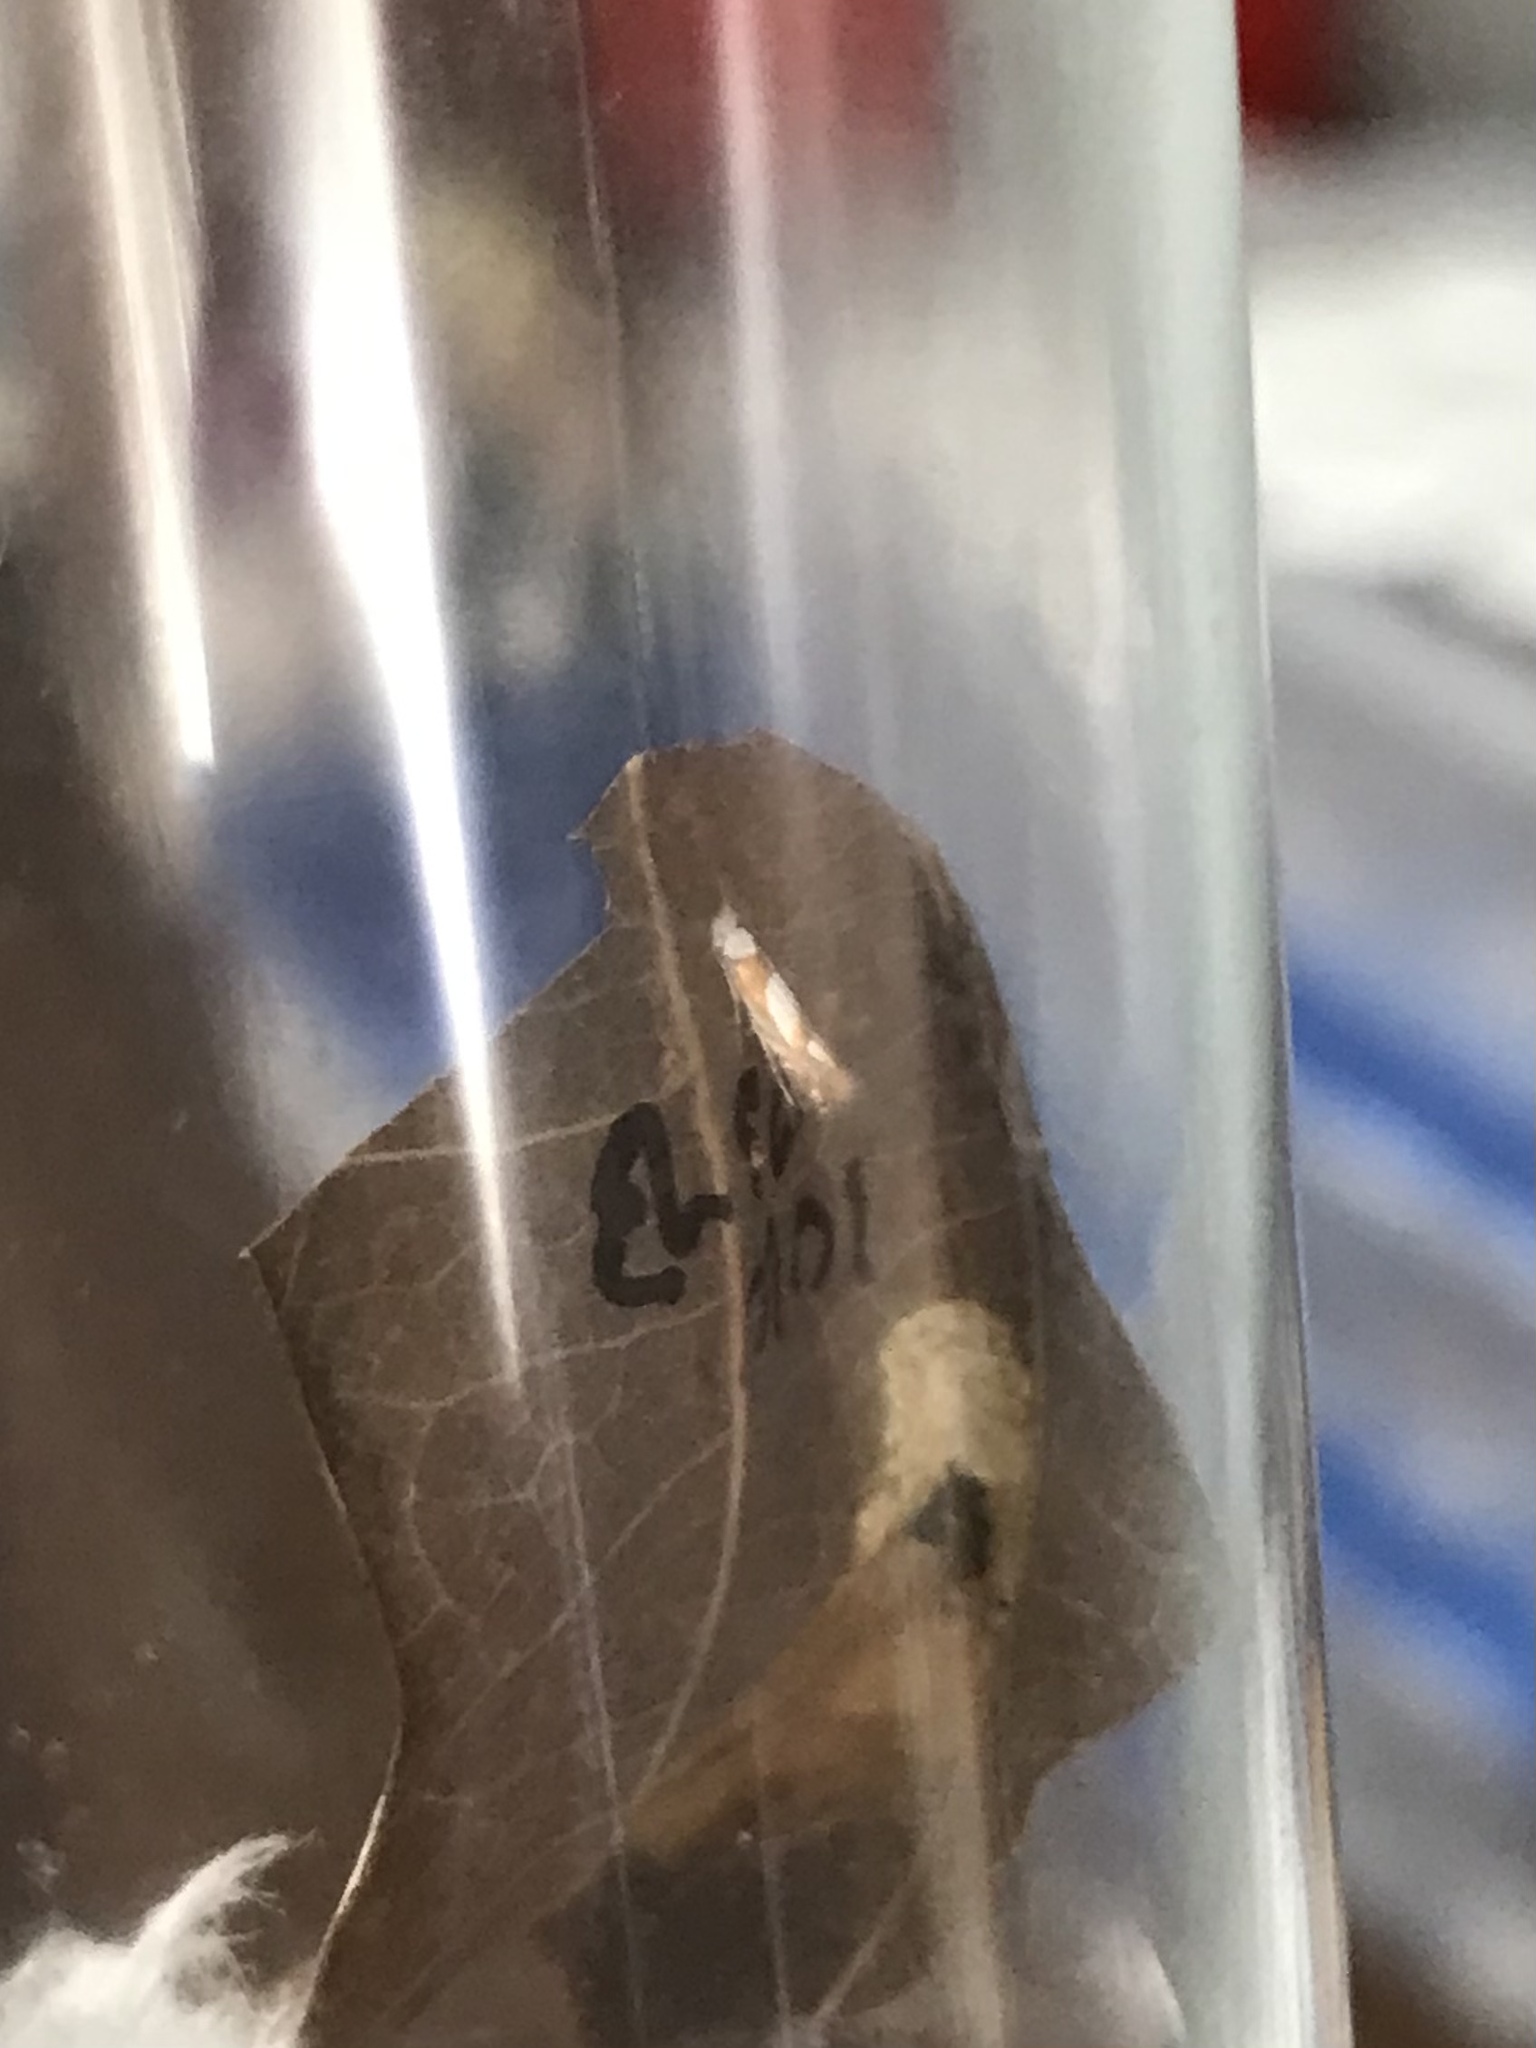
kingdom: Animalia
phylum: Arthropoda
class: Insecta
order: Lepidoptera
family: Gracillariidae
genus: Phyllonorycter
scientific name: Phyllonorycter fitchella
